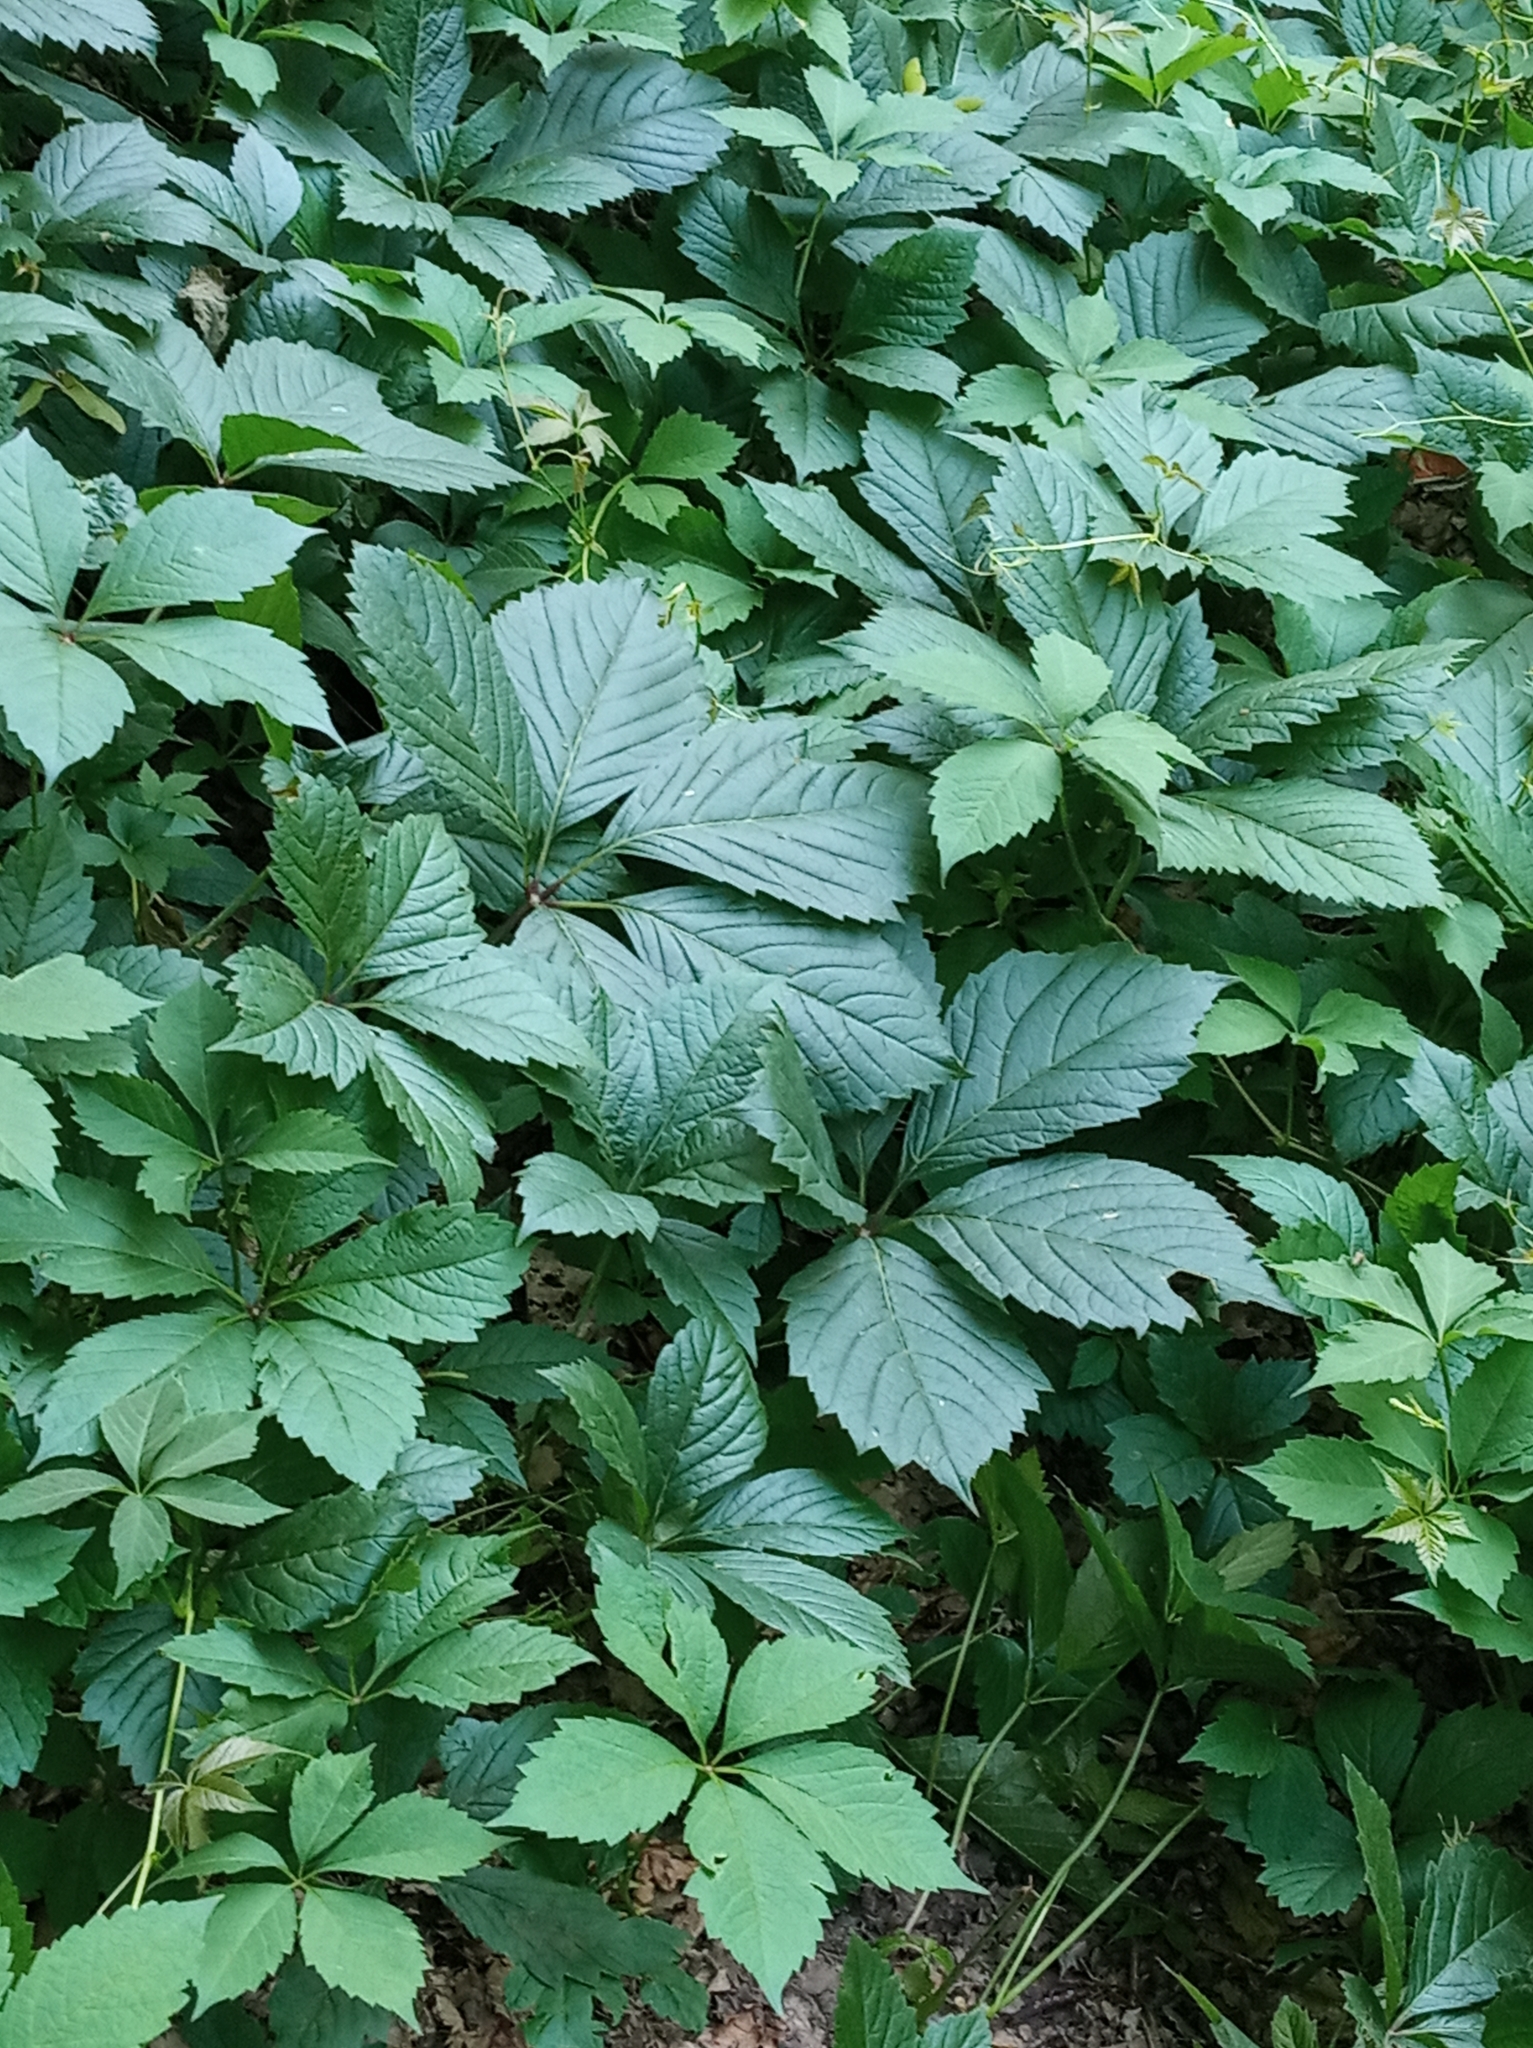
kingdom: Plantae
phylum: Tracheophyta
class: Magnoliopsida
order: Vitales
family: Vitaceae
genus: Parthenocissus
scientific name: Parthenocissus inserta
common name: False virginia-creeper
